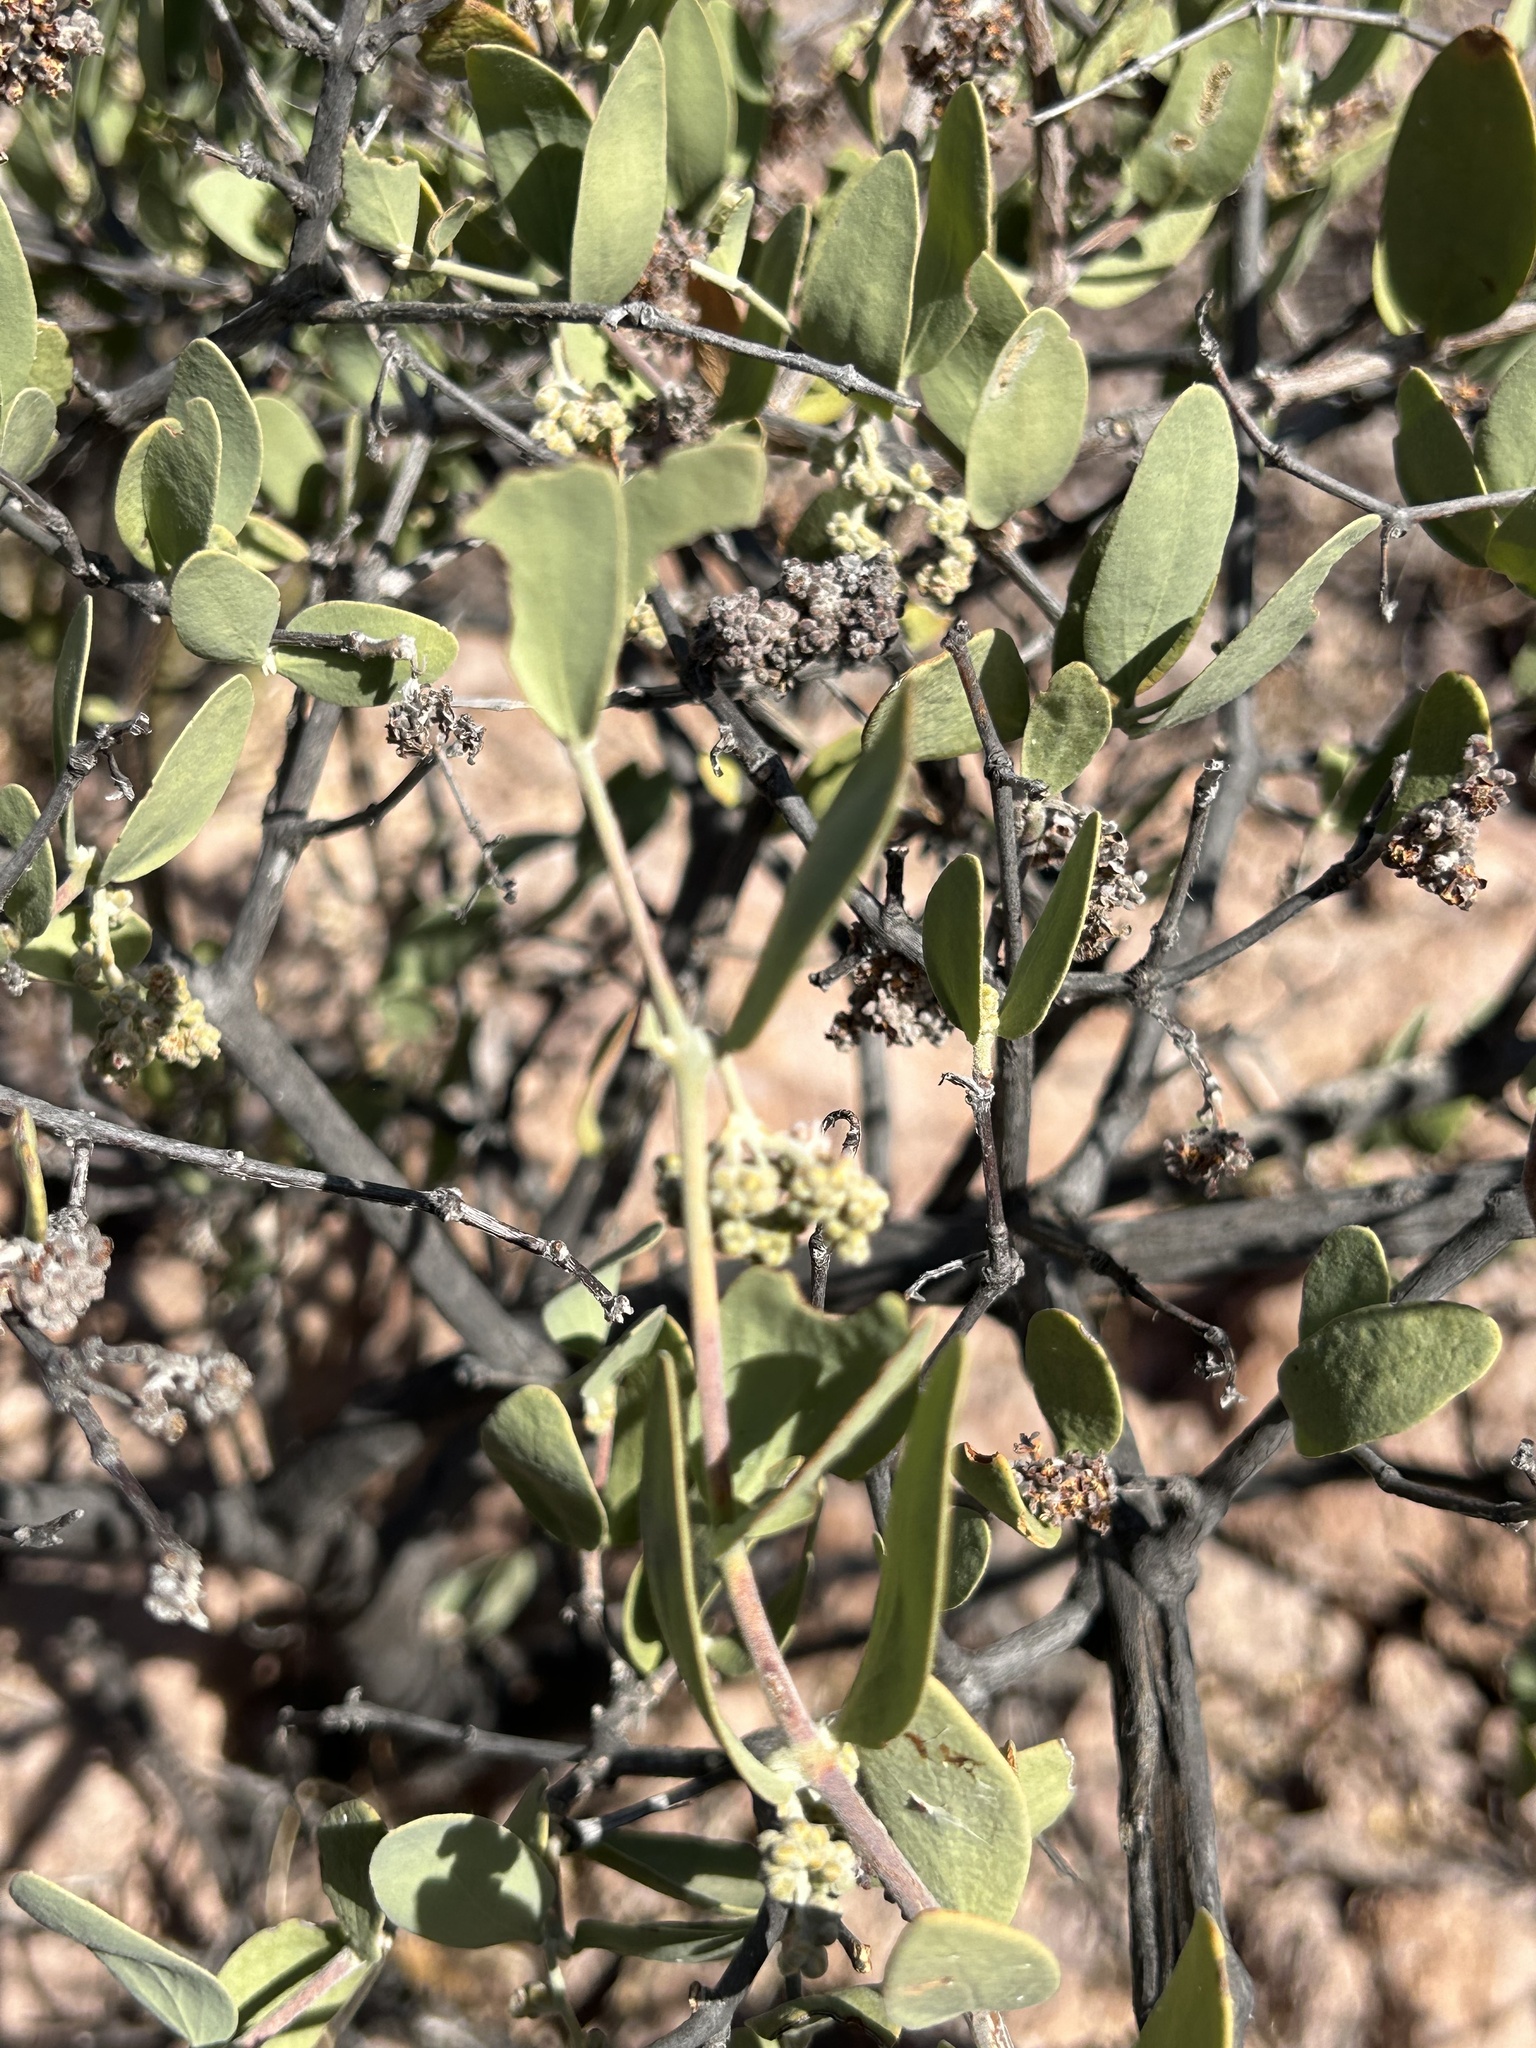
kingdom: Plantae
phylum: Tracheophyta
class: Magnoliopsida
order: Caryophyllales
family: Simmondsiaceae
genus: Simmondsia
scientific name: Simmondsia chinensis
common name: Jojoba
